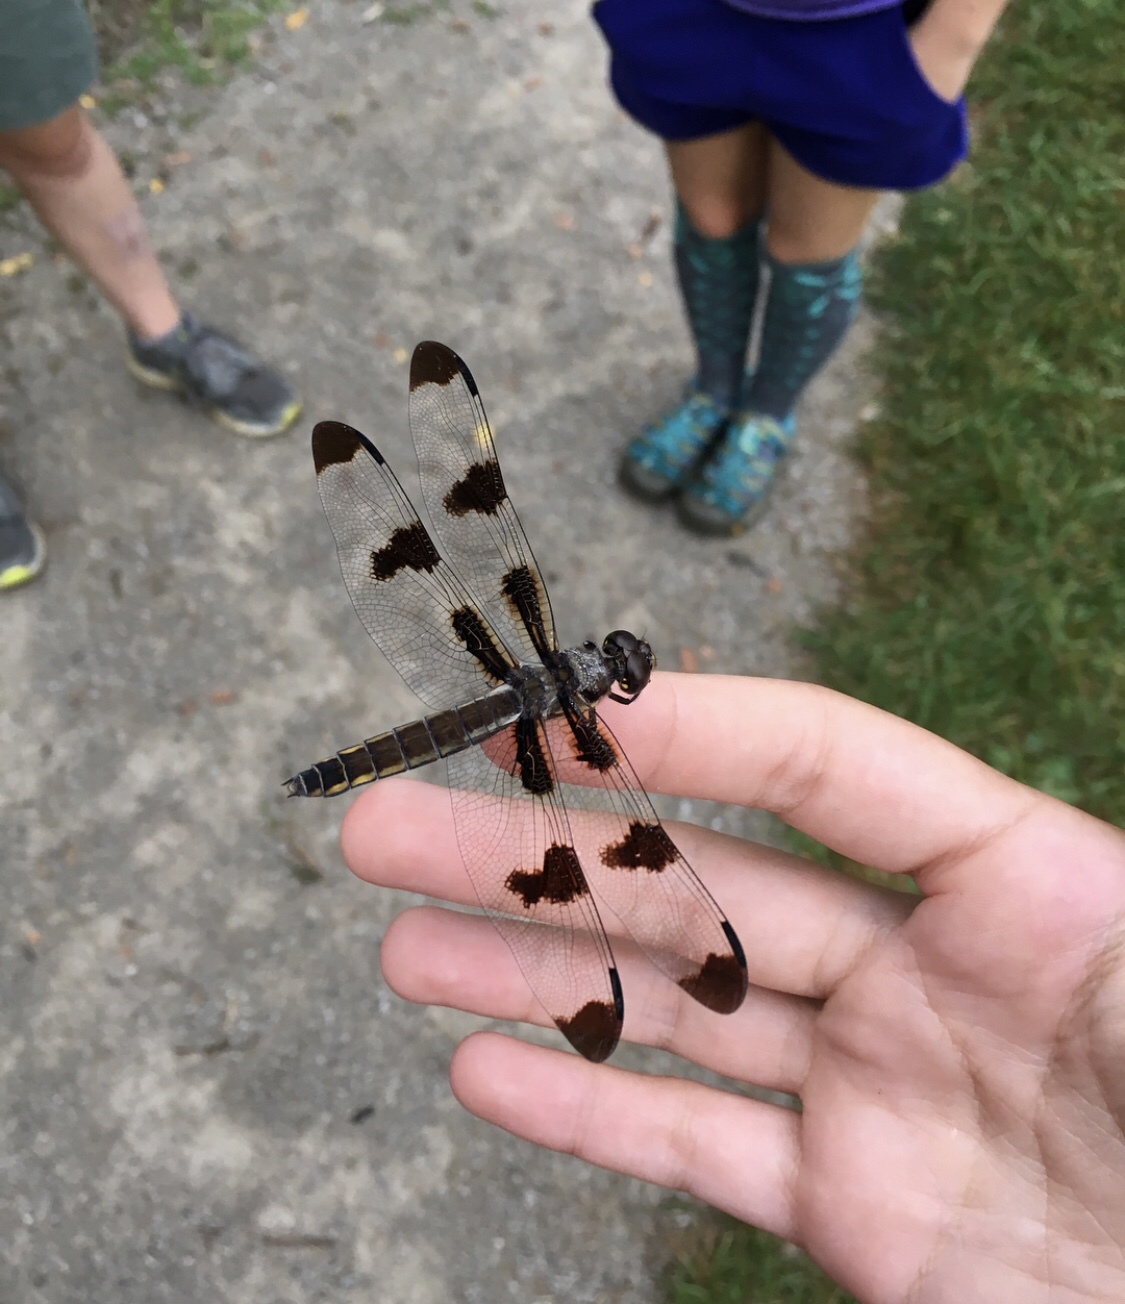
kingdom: Animalia
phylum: Arthropoda
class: Insecta
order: Odonata
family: Libellulidae
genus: Libellula
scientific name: Libellula pulchella
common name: Twelve-spotted skimmer
